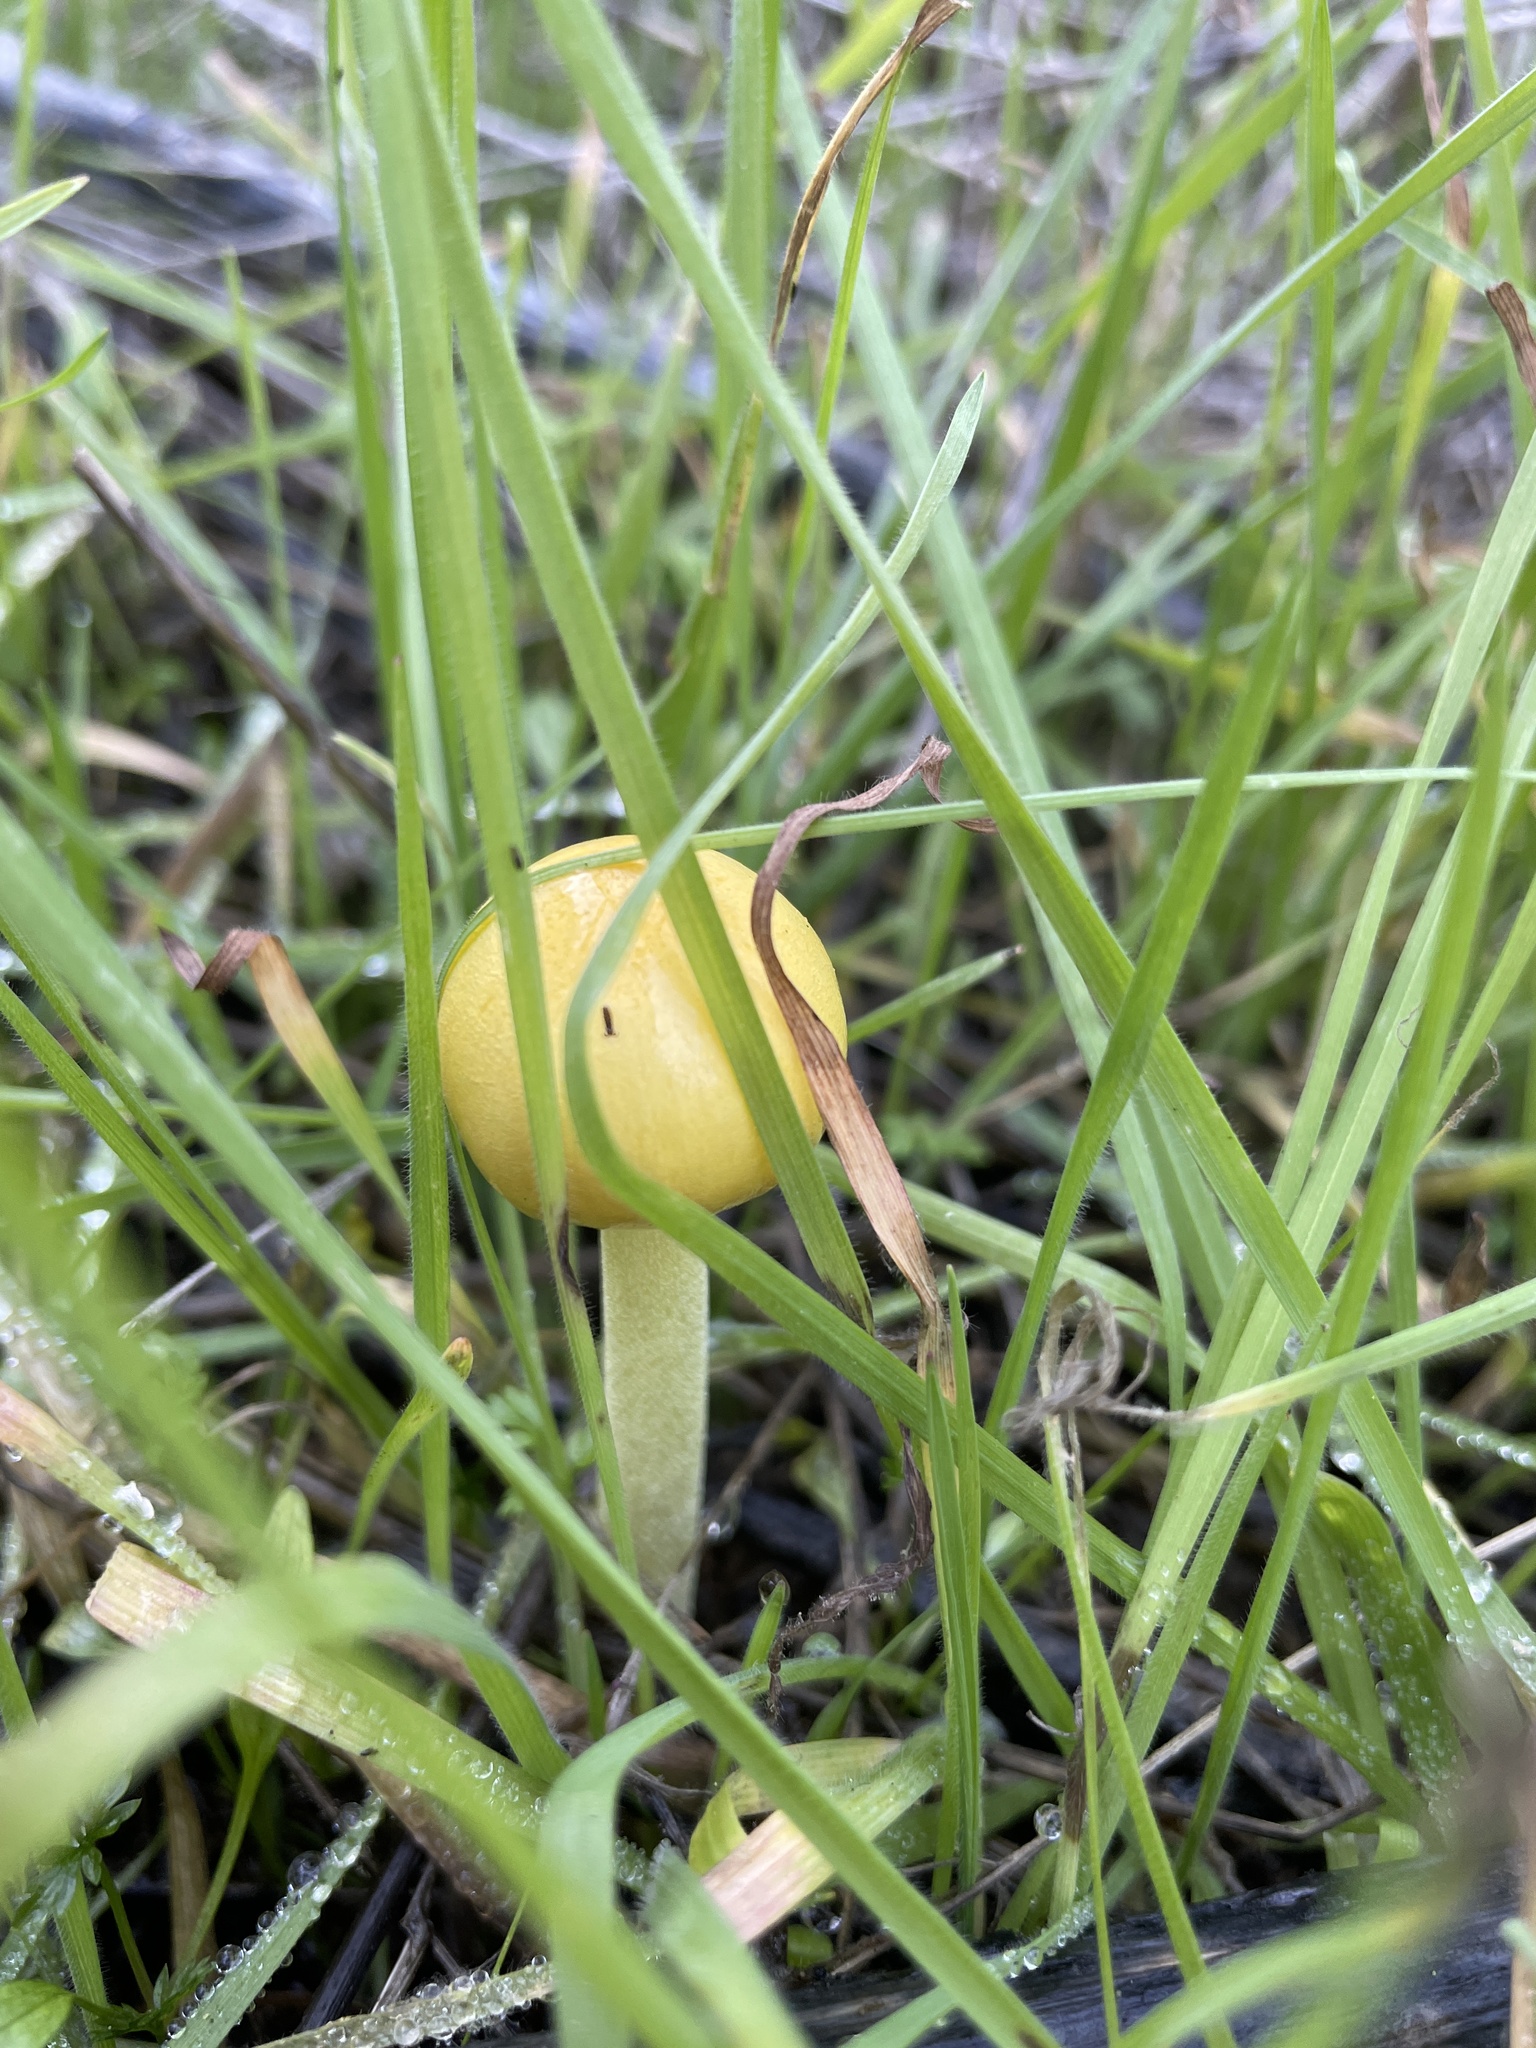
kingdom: Fungi
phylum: Basidiomycota
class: Agaricomycetes
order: Agaricales
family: Bolbitiaceae
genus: Bolbitius
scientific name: Bolbitius titubans
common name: Yellow fieldcap
